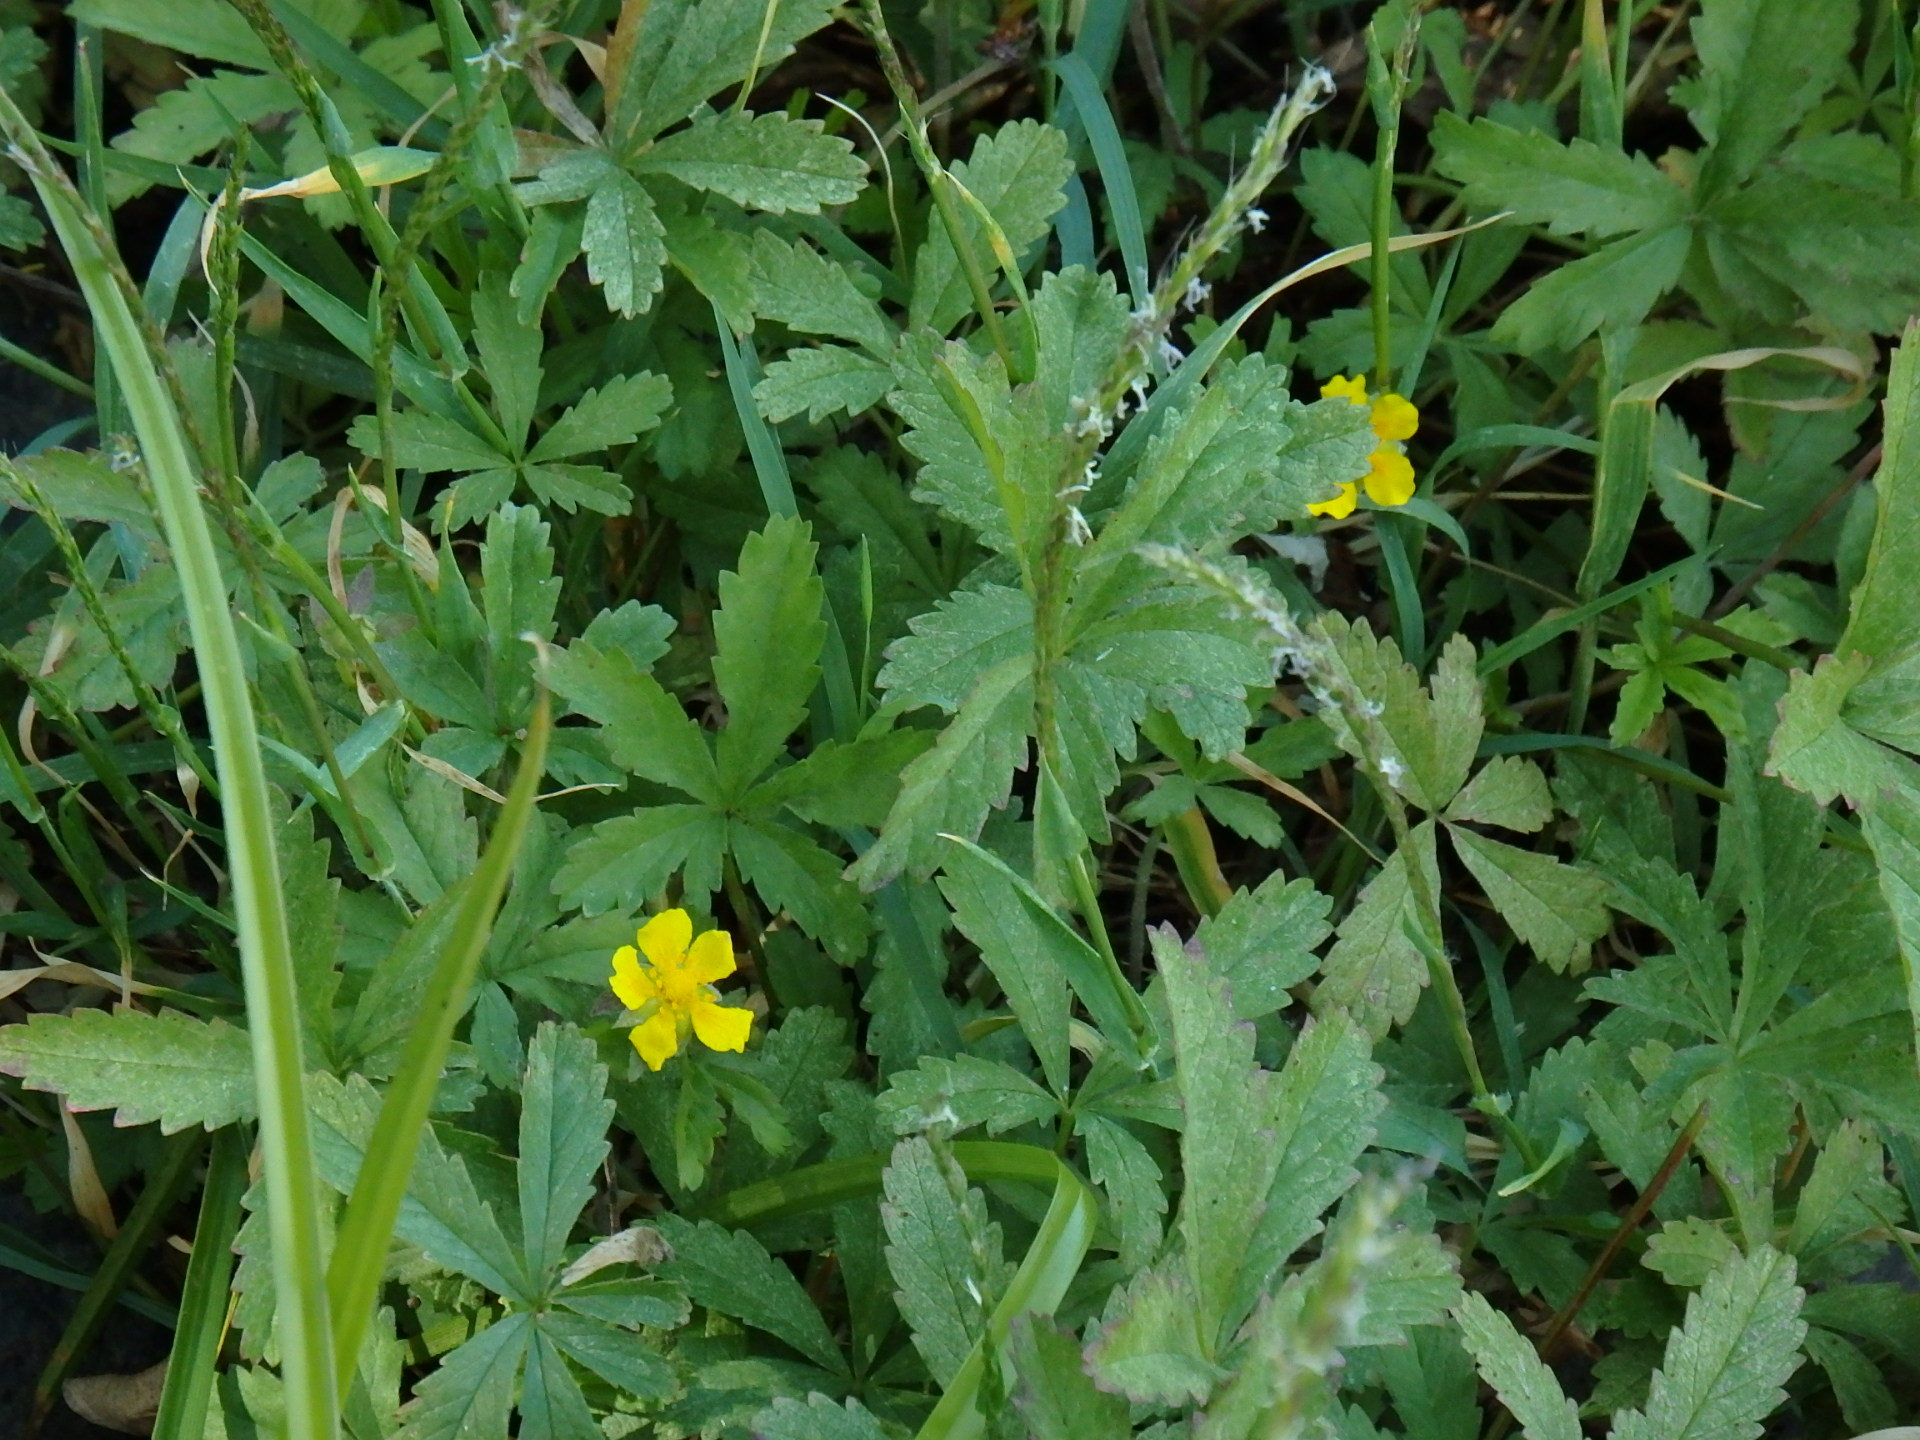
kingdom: Plantae
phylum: Tracheophyta
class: Magnoliopsida
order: Rosales
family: Rosaceae
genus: Potentilla
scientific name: Potentilla reptans
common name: Creeping cinquefoil
